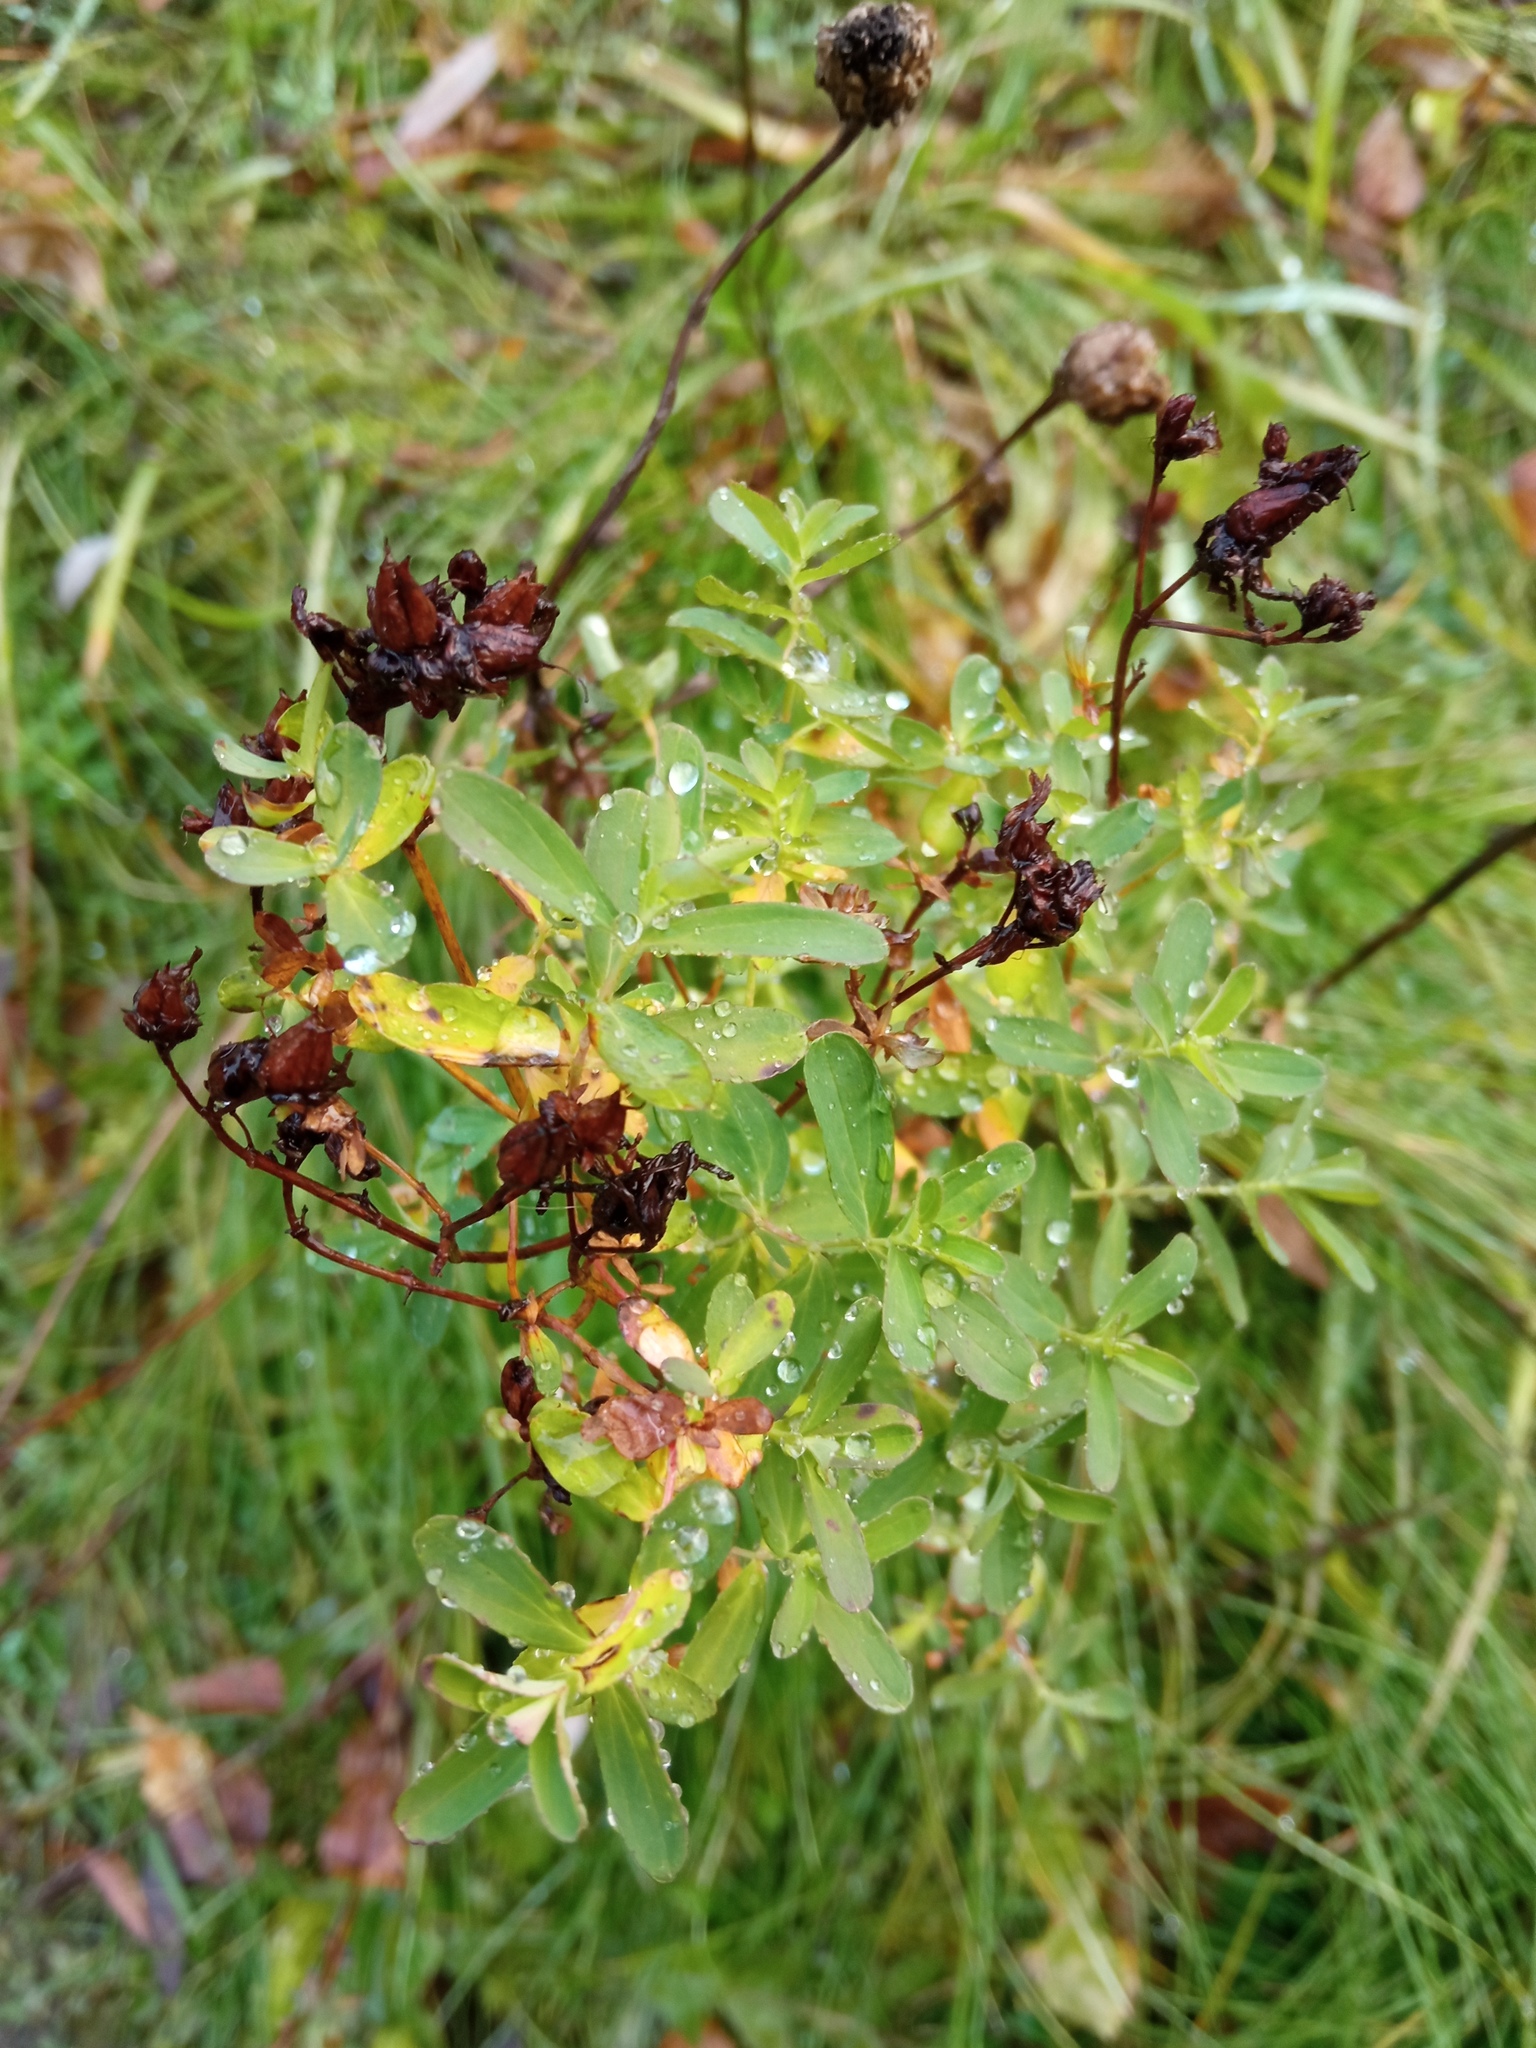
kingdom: Plantae
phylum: Tracheophyta
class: Magnoliopsida
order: Malpighiales
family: Hypericaceae
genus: Hypericum
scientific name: Hypericum perforatum
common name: Common st. johnswort
